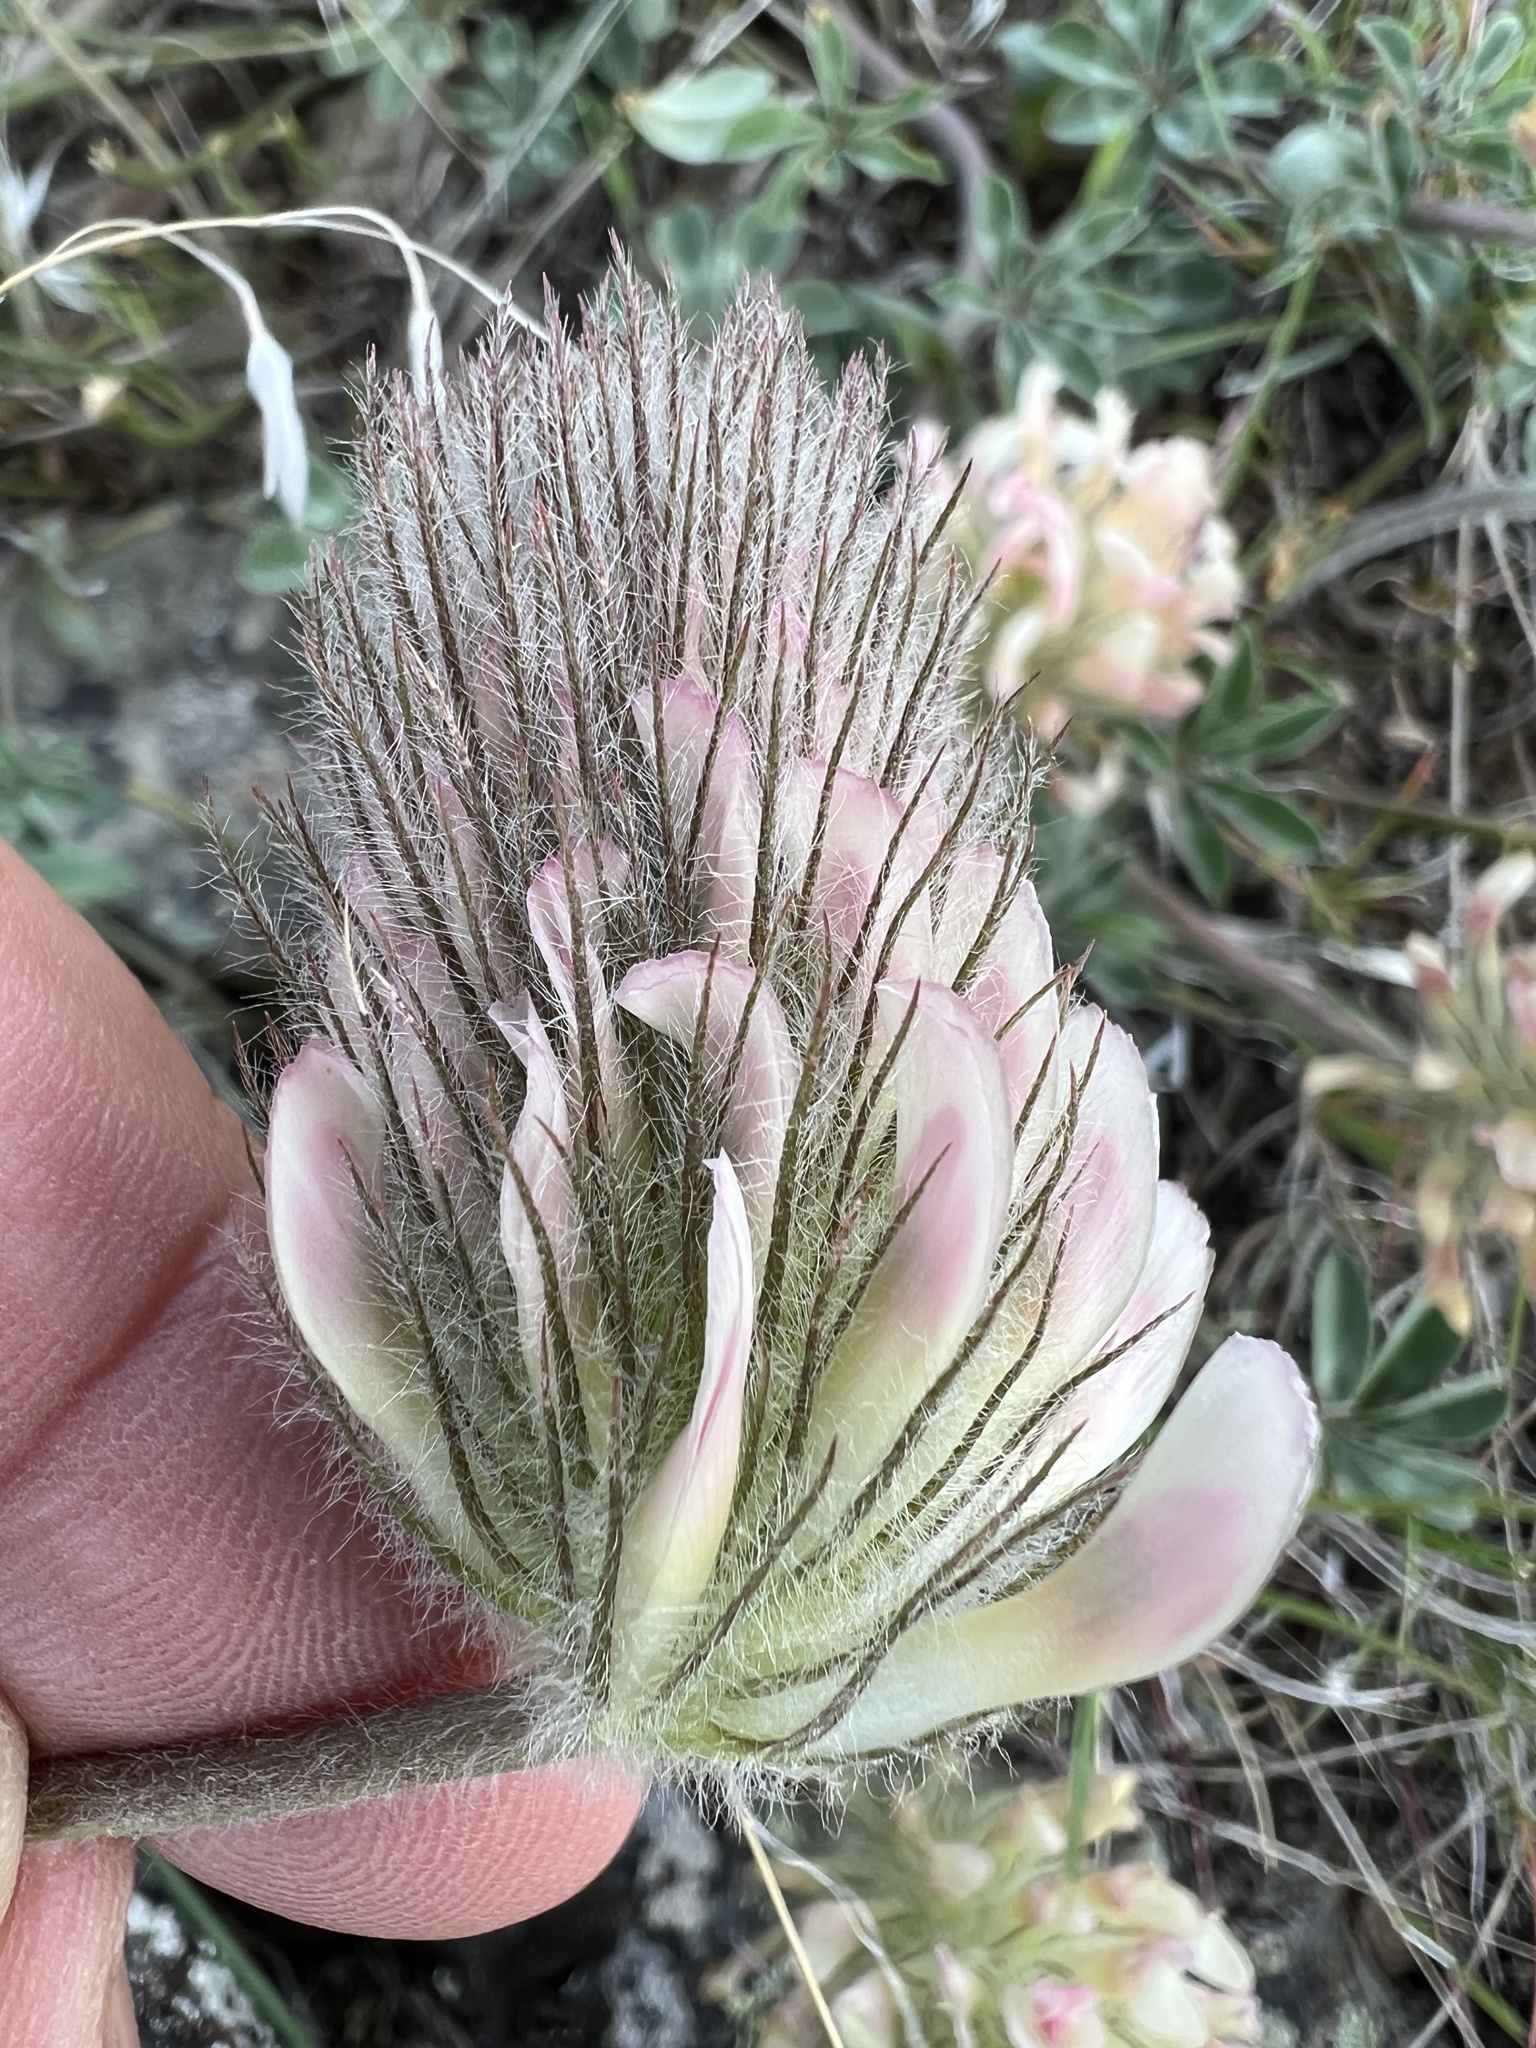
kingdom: Plantae
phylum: Tracheophyta
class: Magnoliopsida
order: Fabales
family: Fabaceae
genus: Trifolium
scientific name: Trifolium macrocephalum
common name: Large-head clover
